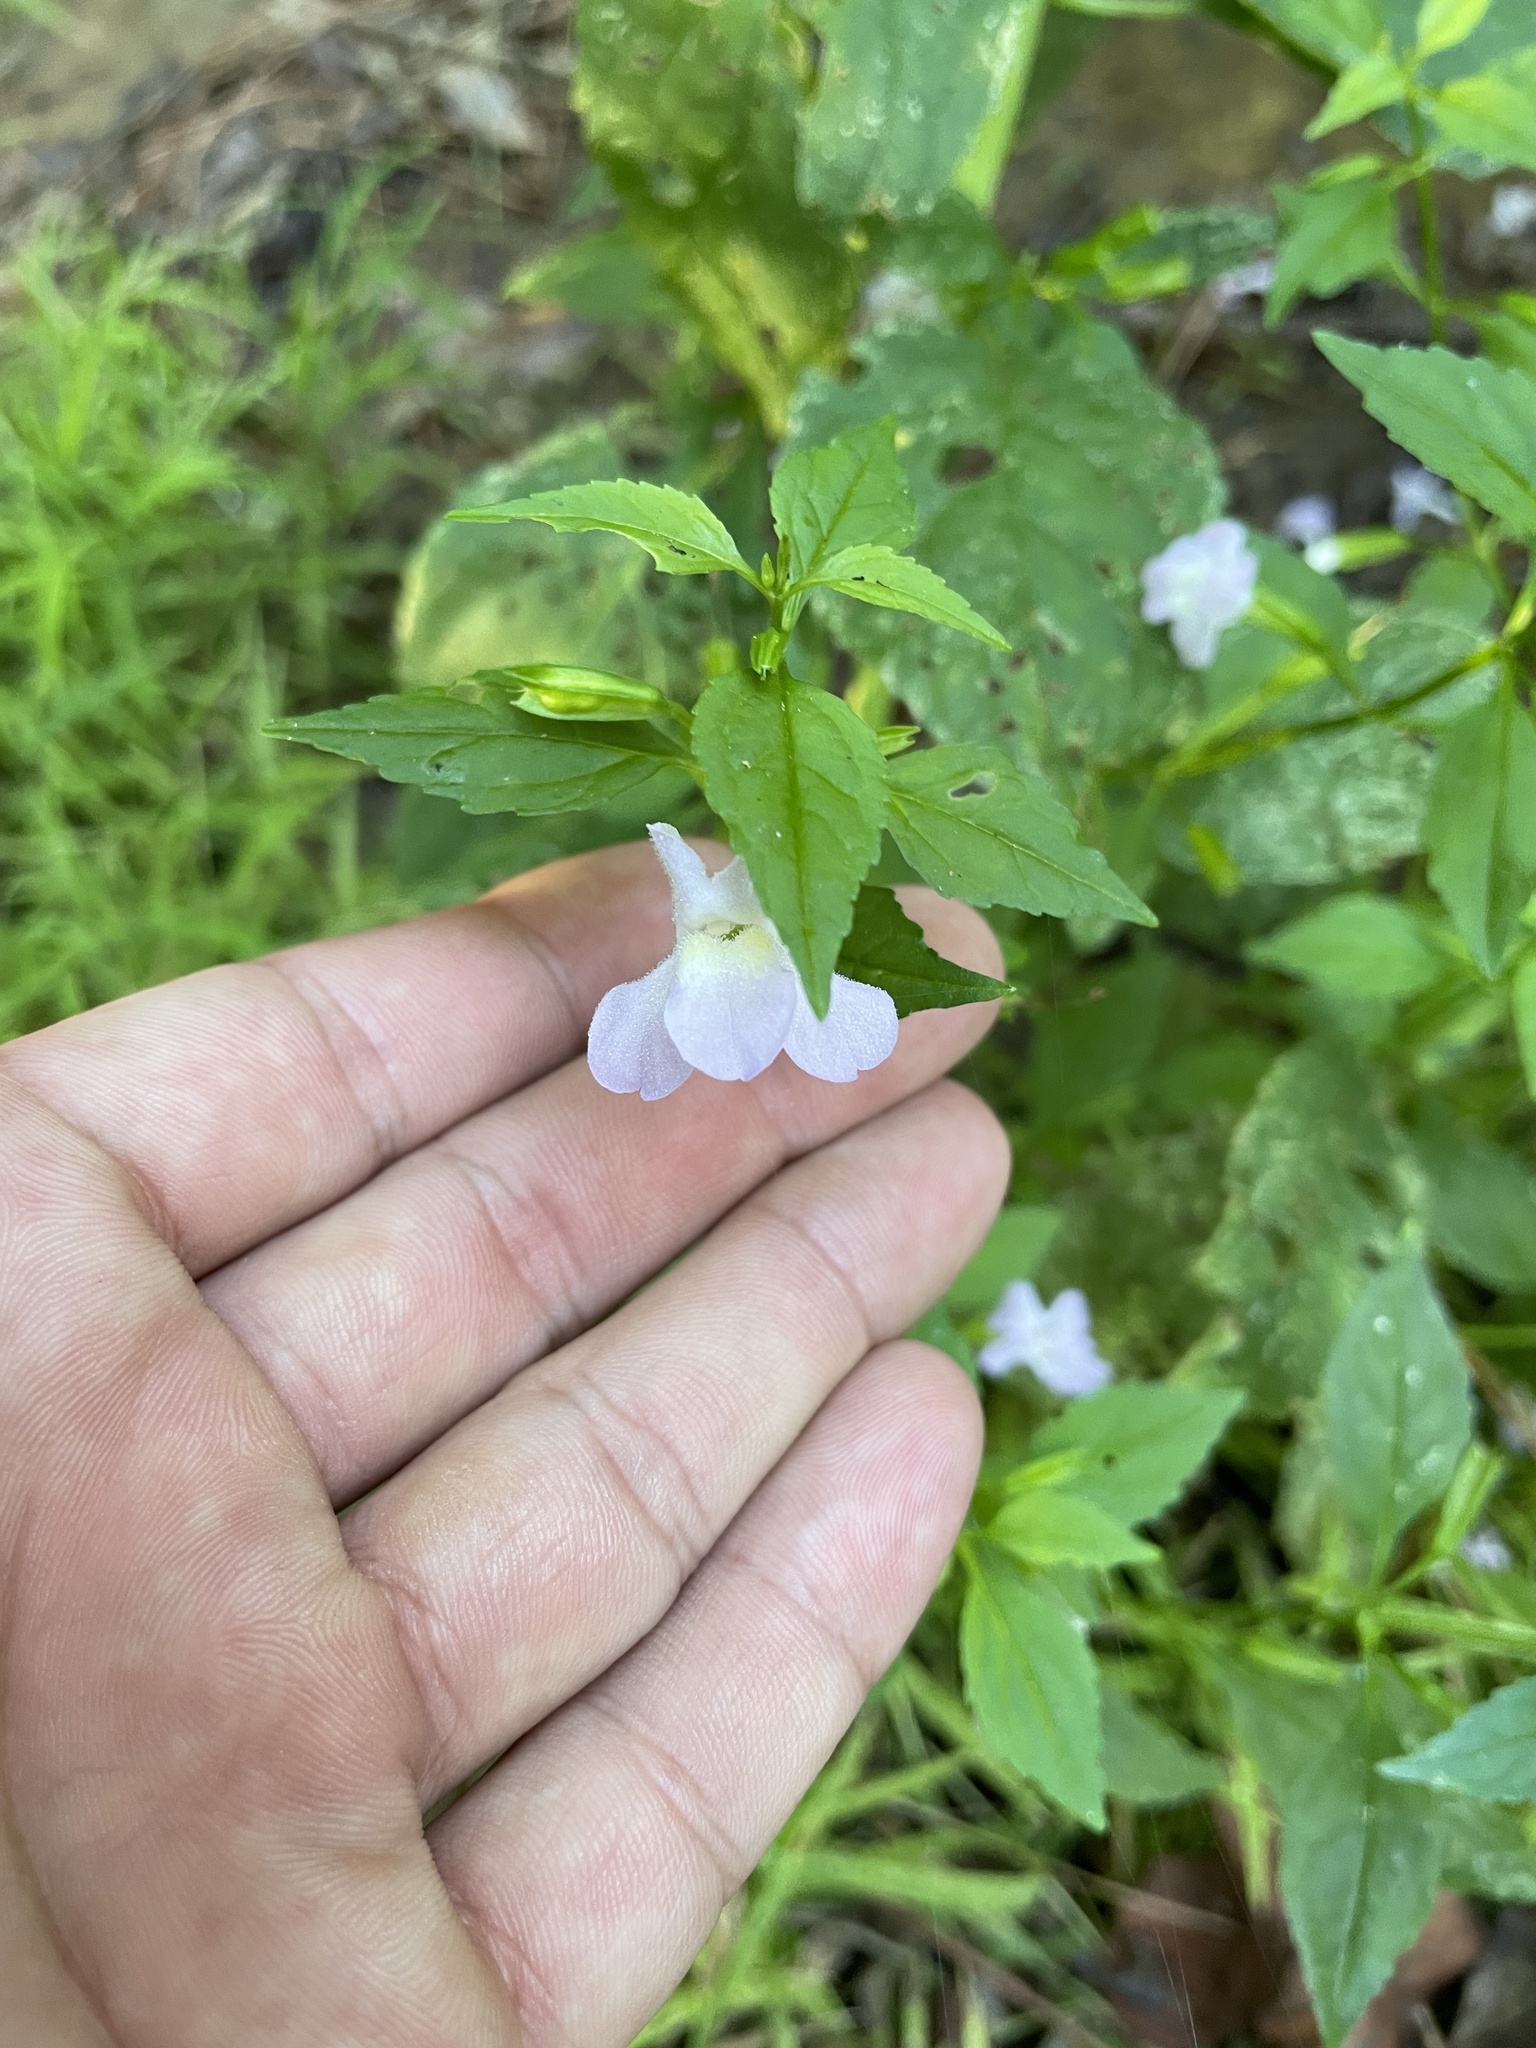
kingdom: Plantae
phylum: Tracheophyta
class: Magnoliopsida
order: Lamiales
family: Phrymaceae
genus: Mimulus
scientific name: Mimulus alatus
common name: Sharp-wing monkey-flower
